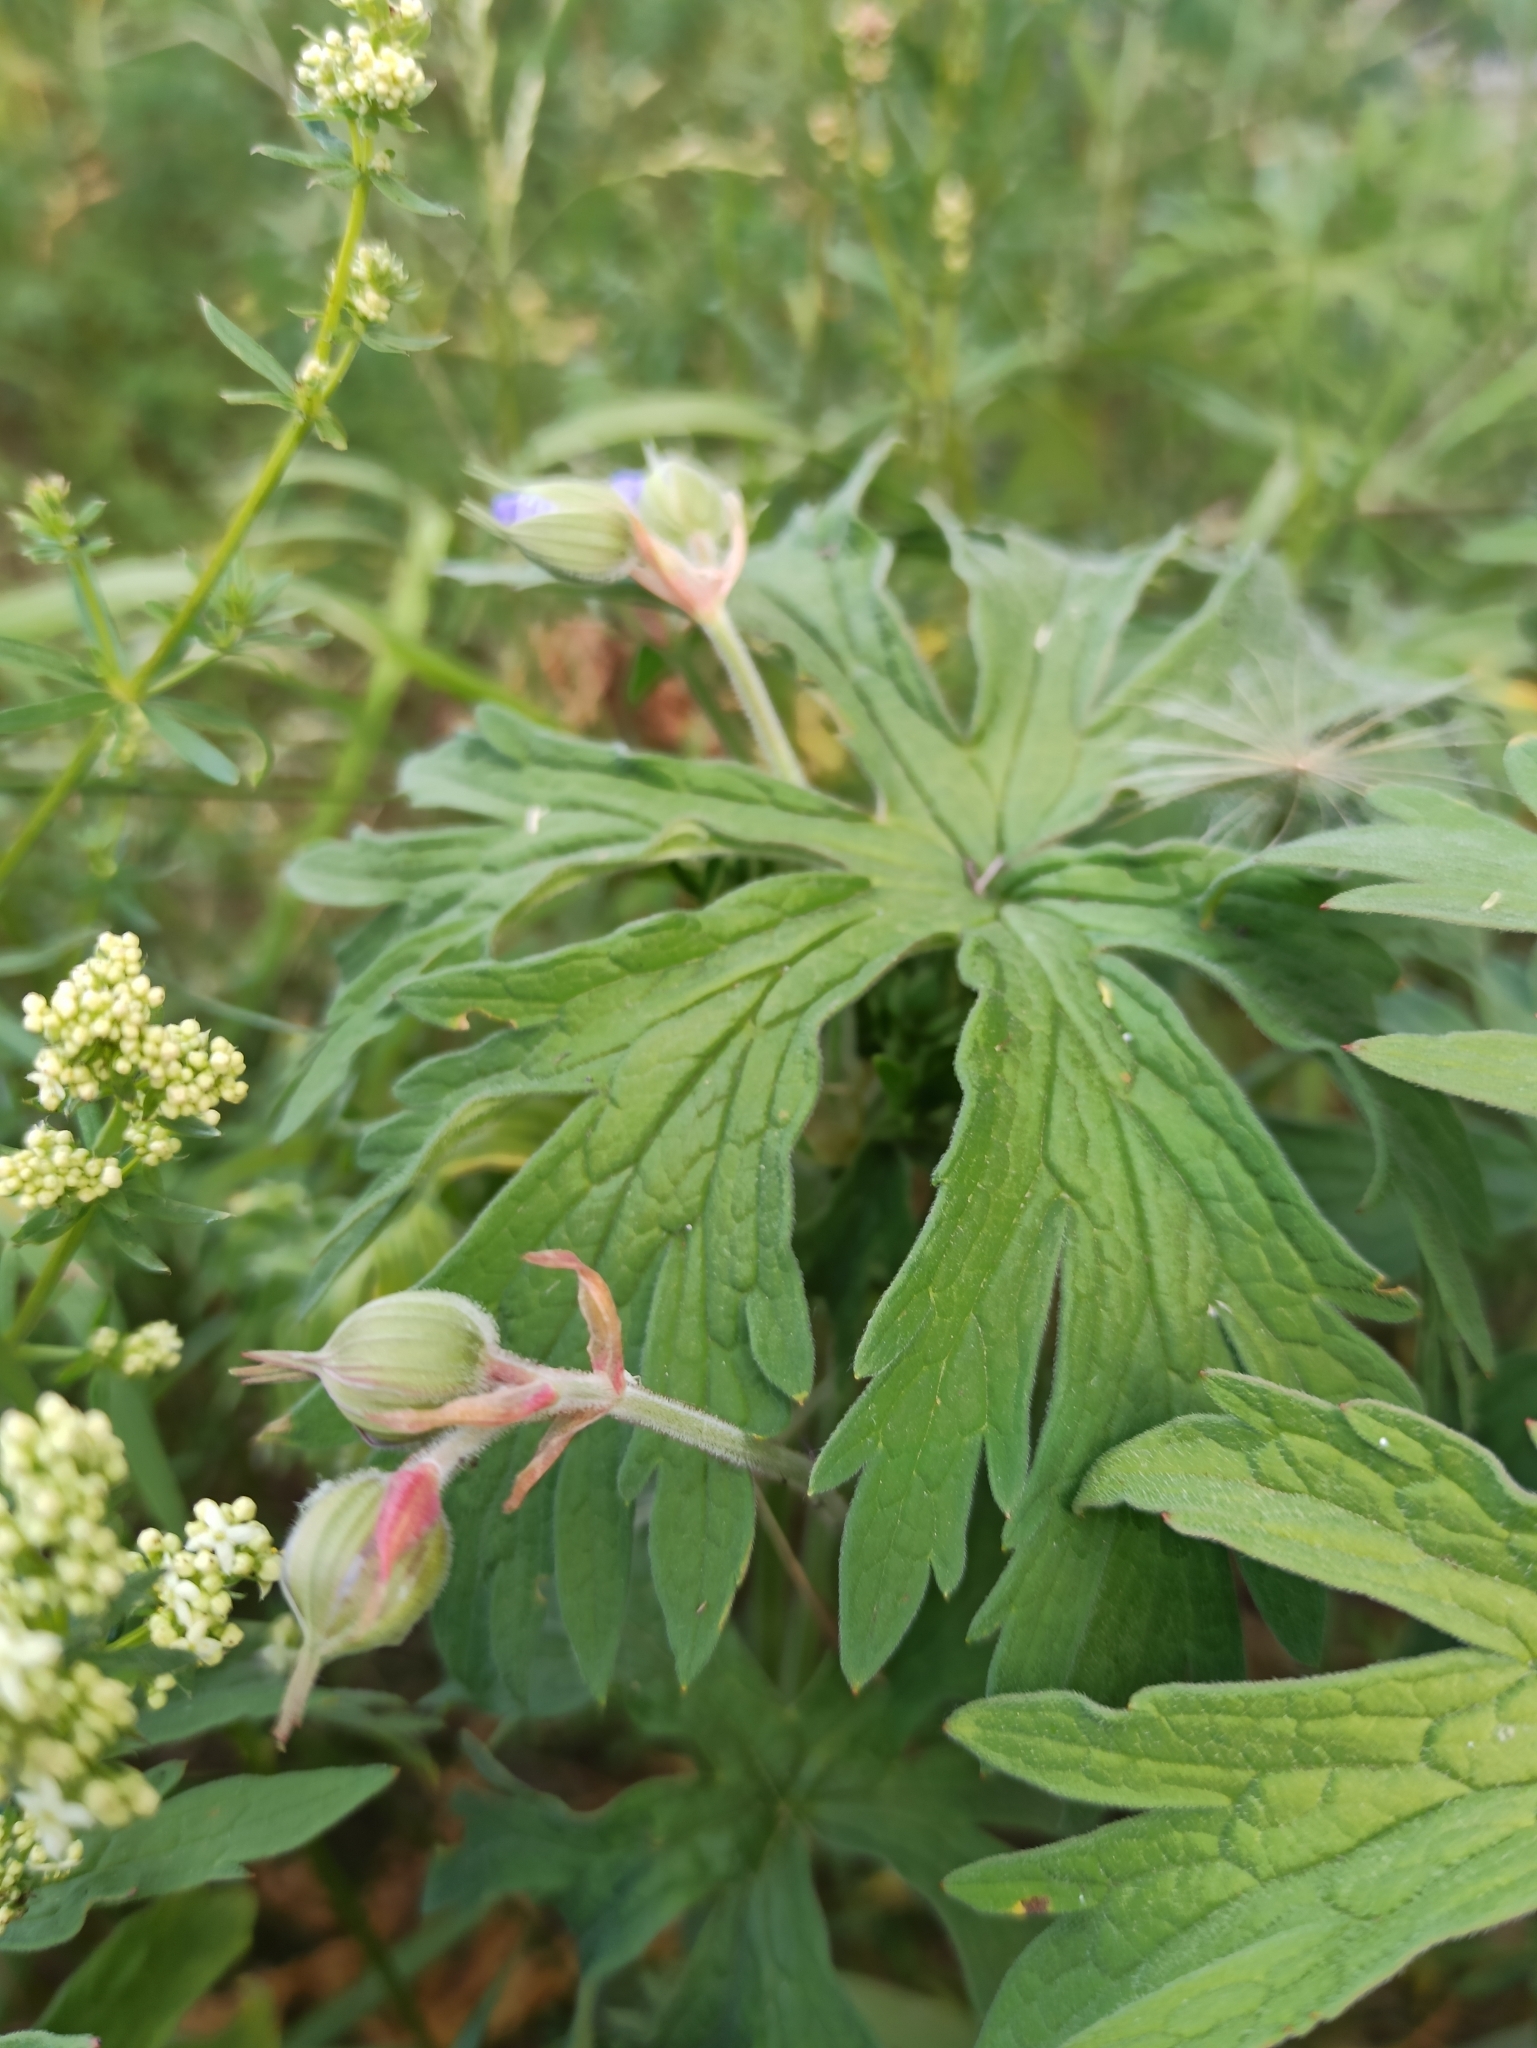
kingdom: Plantae
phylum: Tracheophyta
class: Magnoliopsida
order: Geraniales
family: Geraniaceae
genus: Geranium
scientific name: Geranium pratense
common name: Meadow crane's-bill
